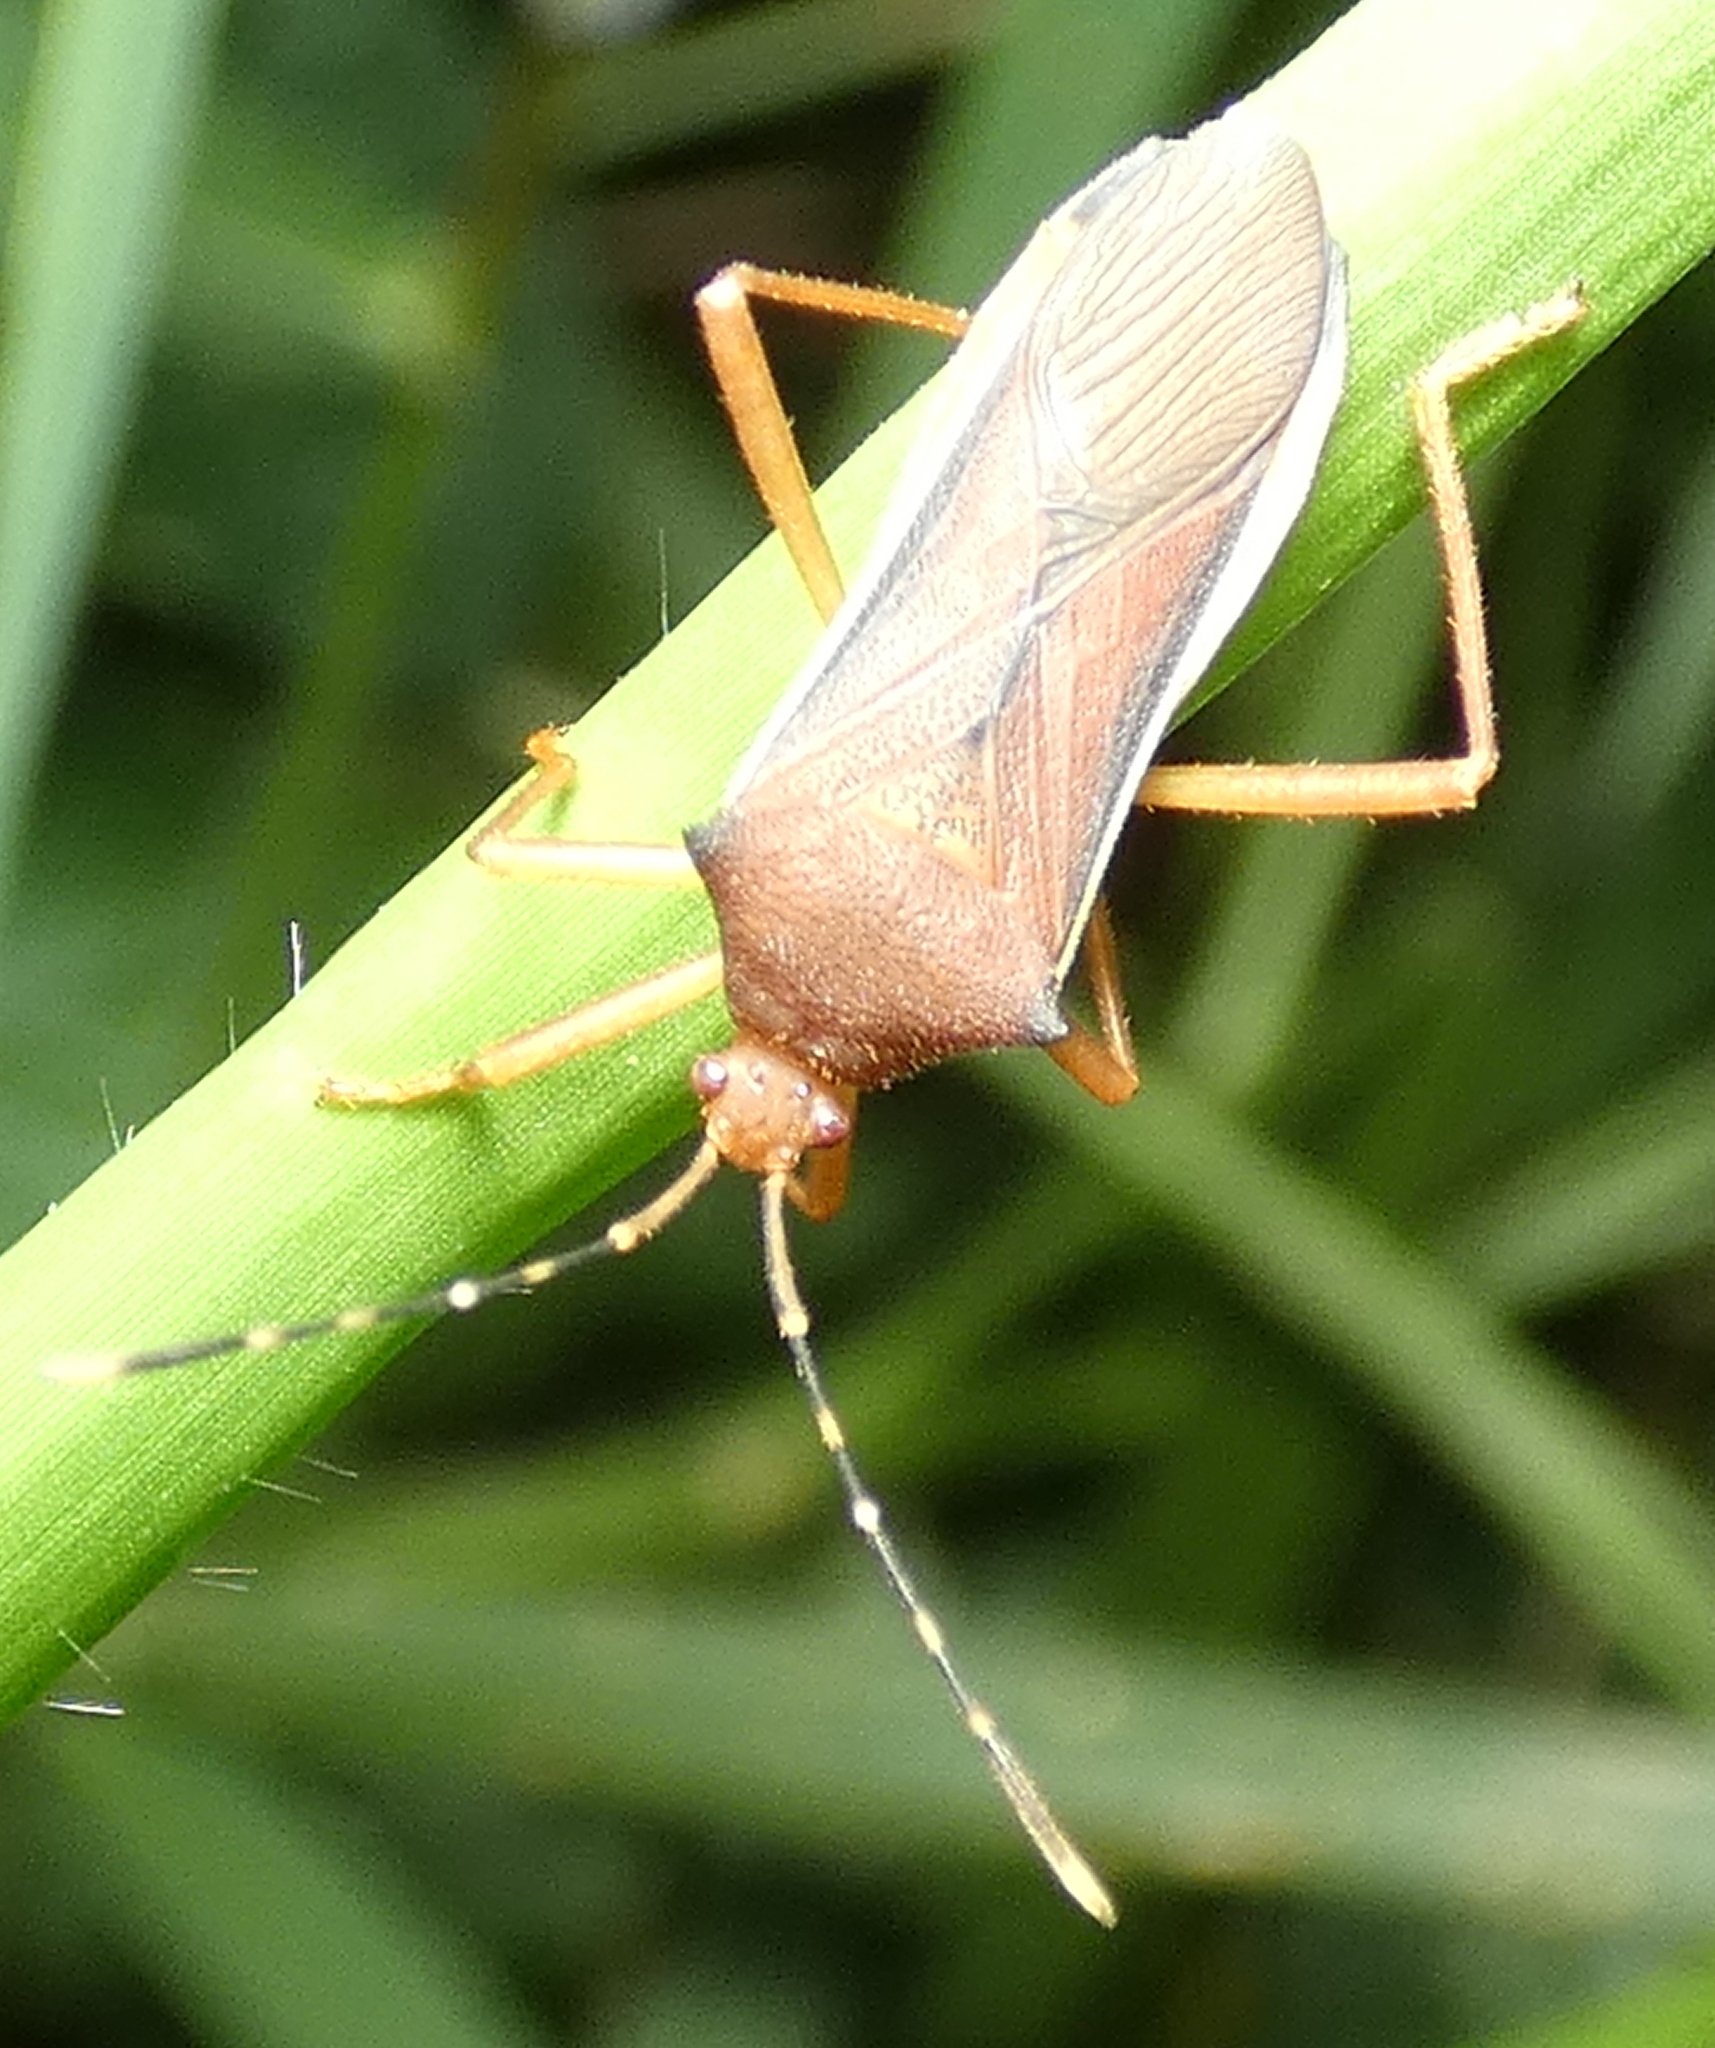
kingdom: Animalia
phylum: Arthropoda
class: Insecta
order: Hemiptera
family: Coreidae
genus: Anasa
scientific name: Anasa varicornis
